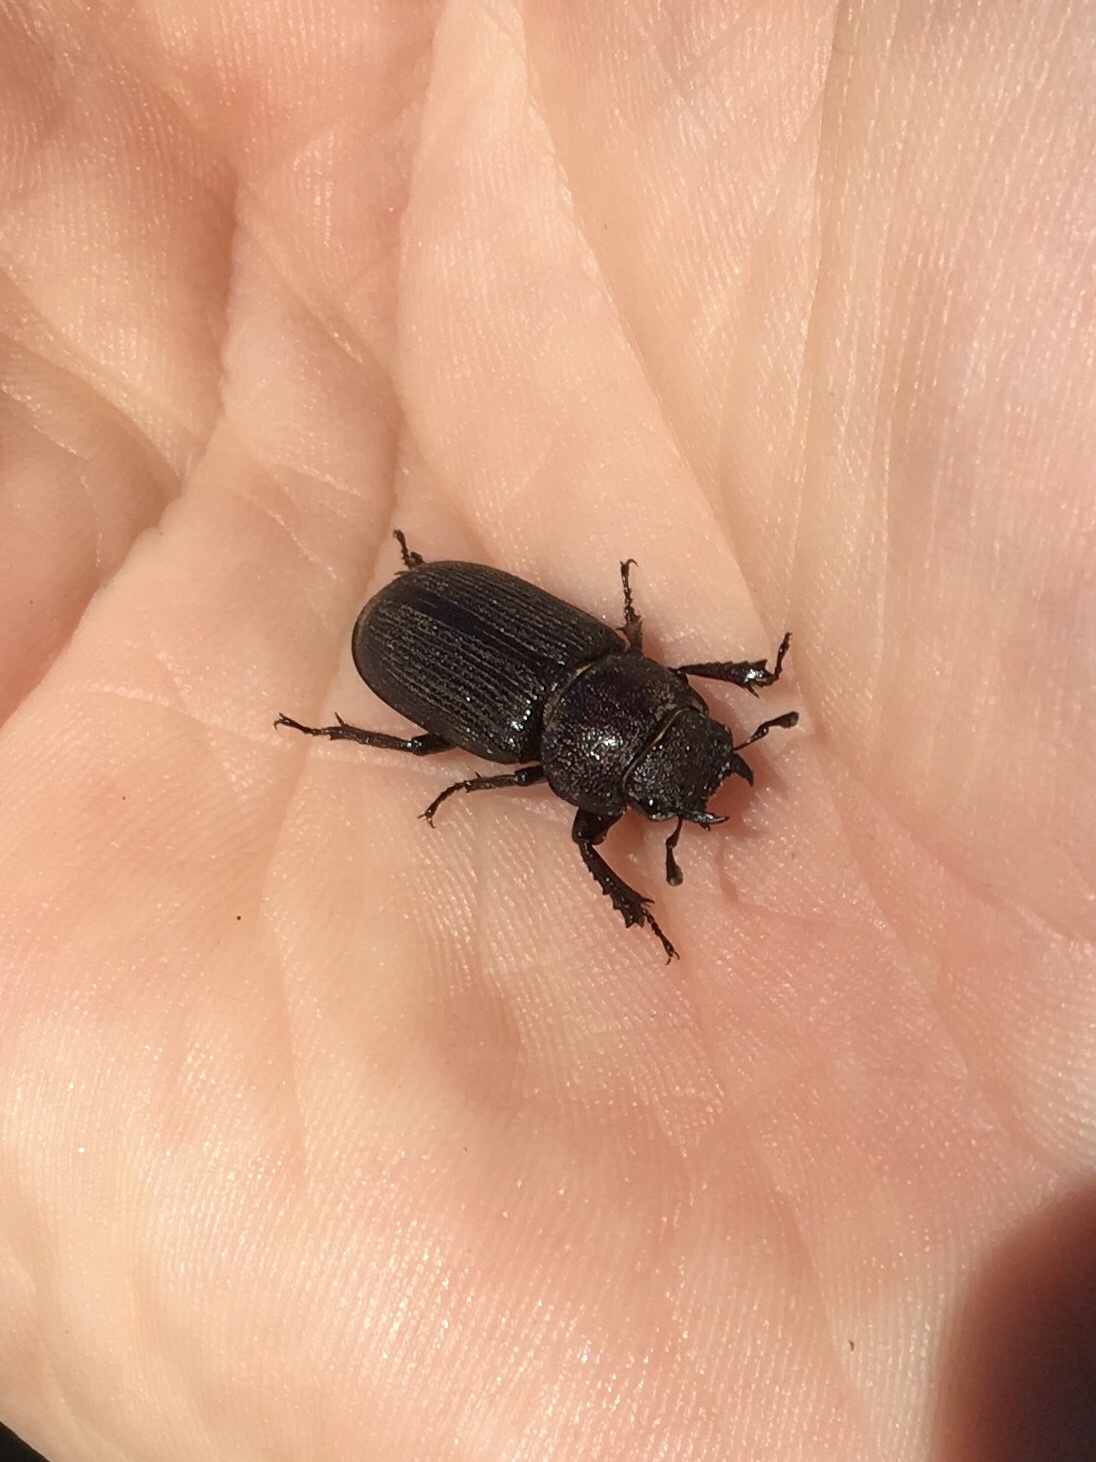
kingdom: Animalia
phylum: Arthropoda
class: Insecta
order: Coleoptera
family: Lucanidae
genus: Dorcus
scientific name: Dorcus parallelus
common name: Antelope beetle
